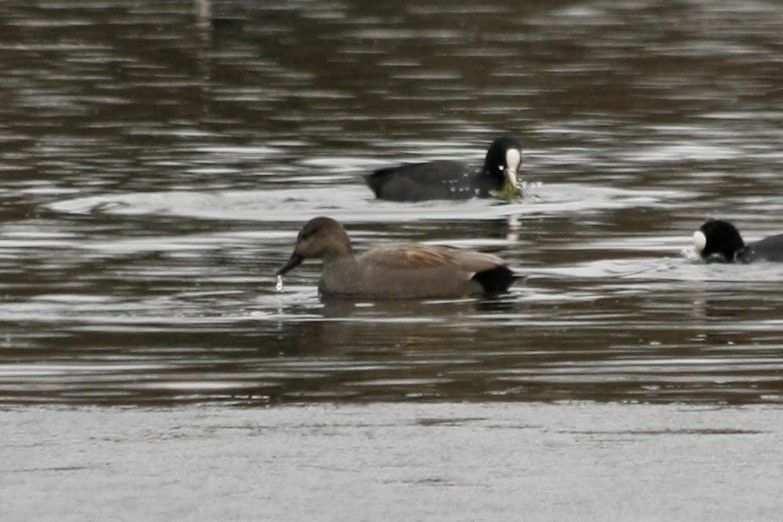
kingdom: Animalia
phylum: Chordata
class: Aves
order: Anseriformes
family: Anatidae
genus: Mareca
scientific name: Mareca strepera
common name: Gadwall
